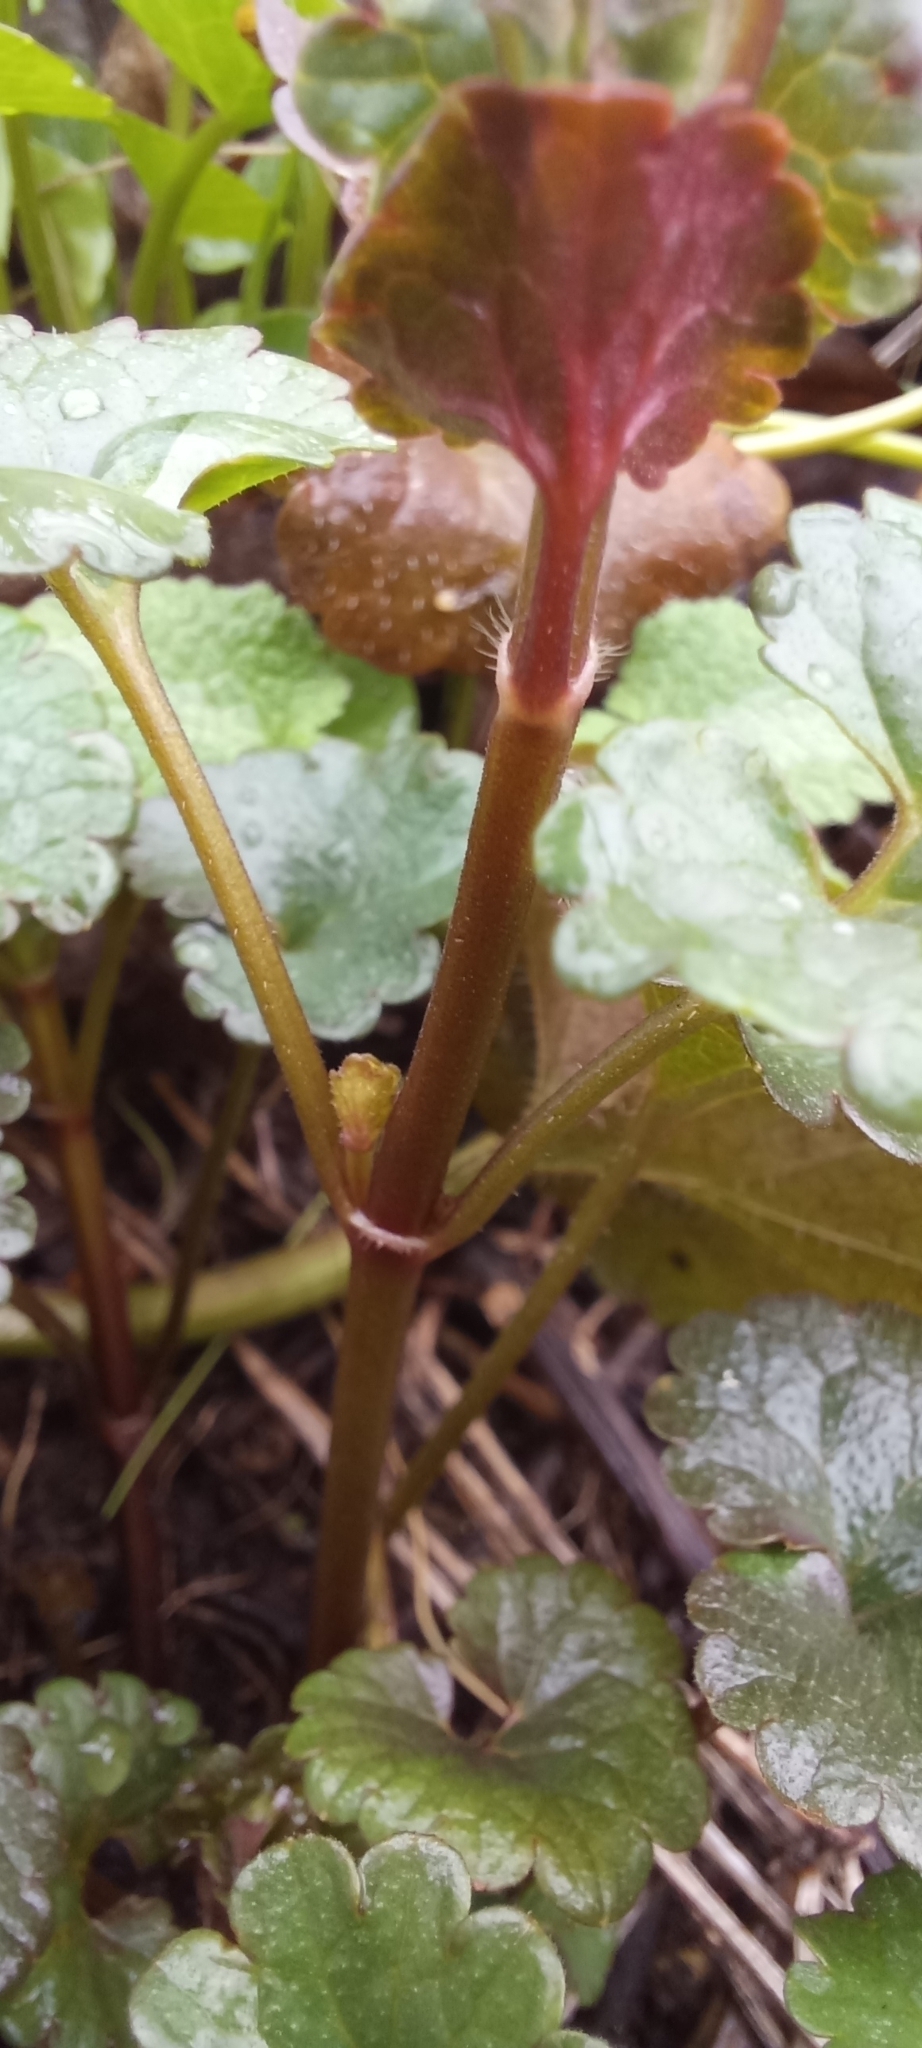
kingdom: Plantae
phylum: Tracheophyta
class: Magnoliopsida
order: Lamiales
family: Lamiaceae
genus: Glechoma
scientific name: Glechoma hederacea
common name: Ground ivy
